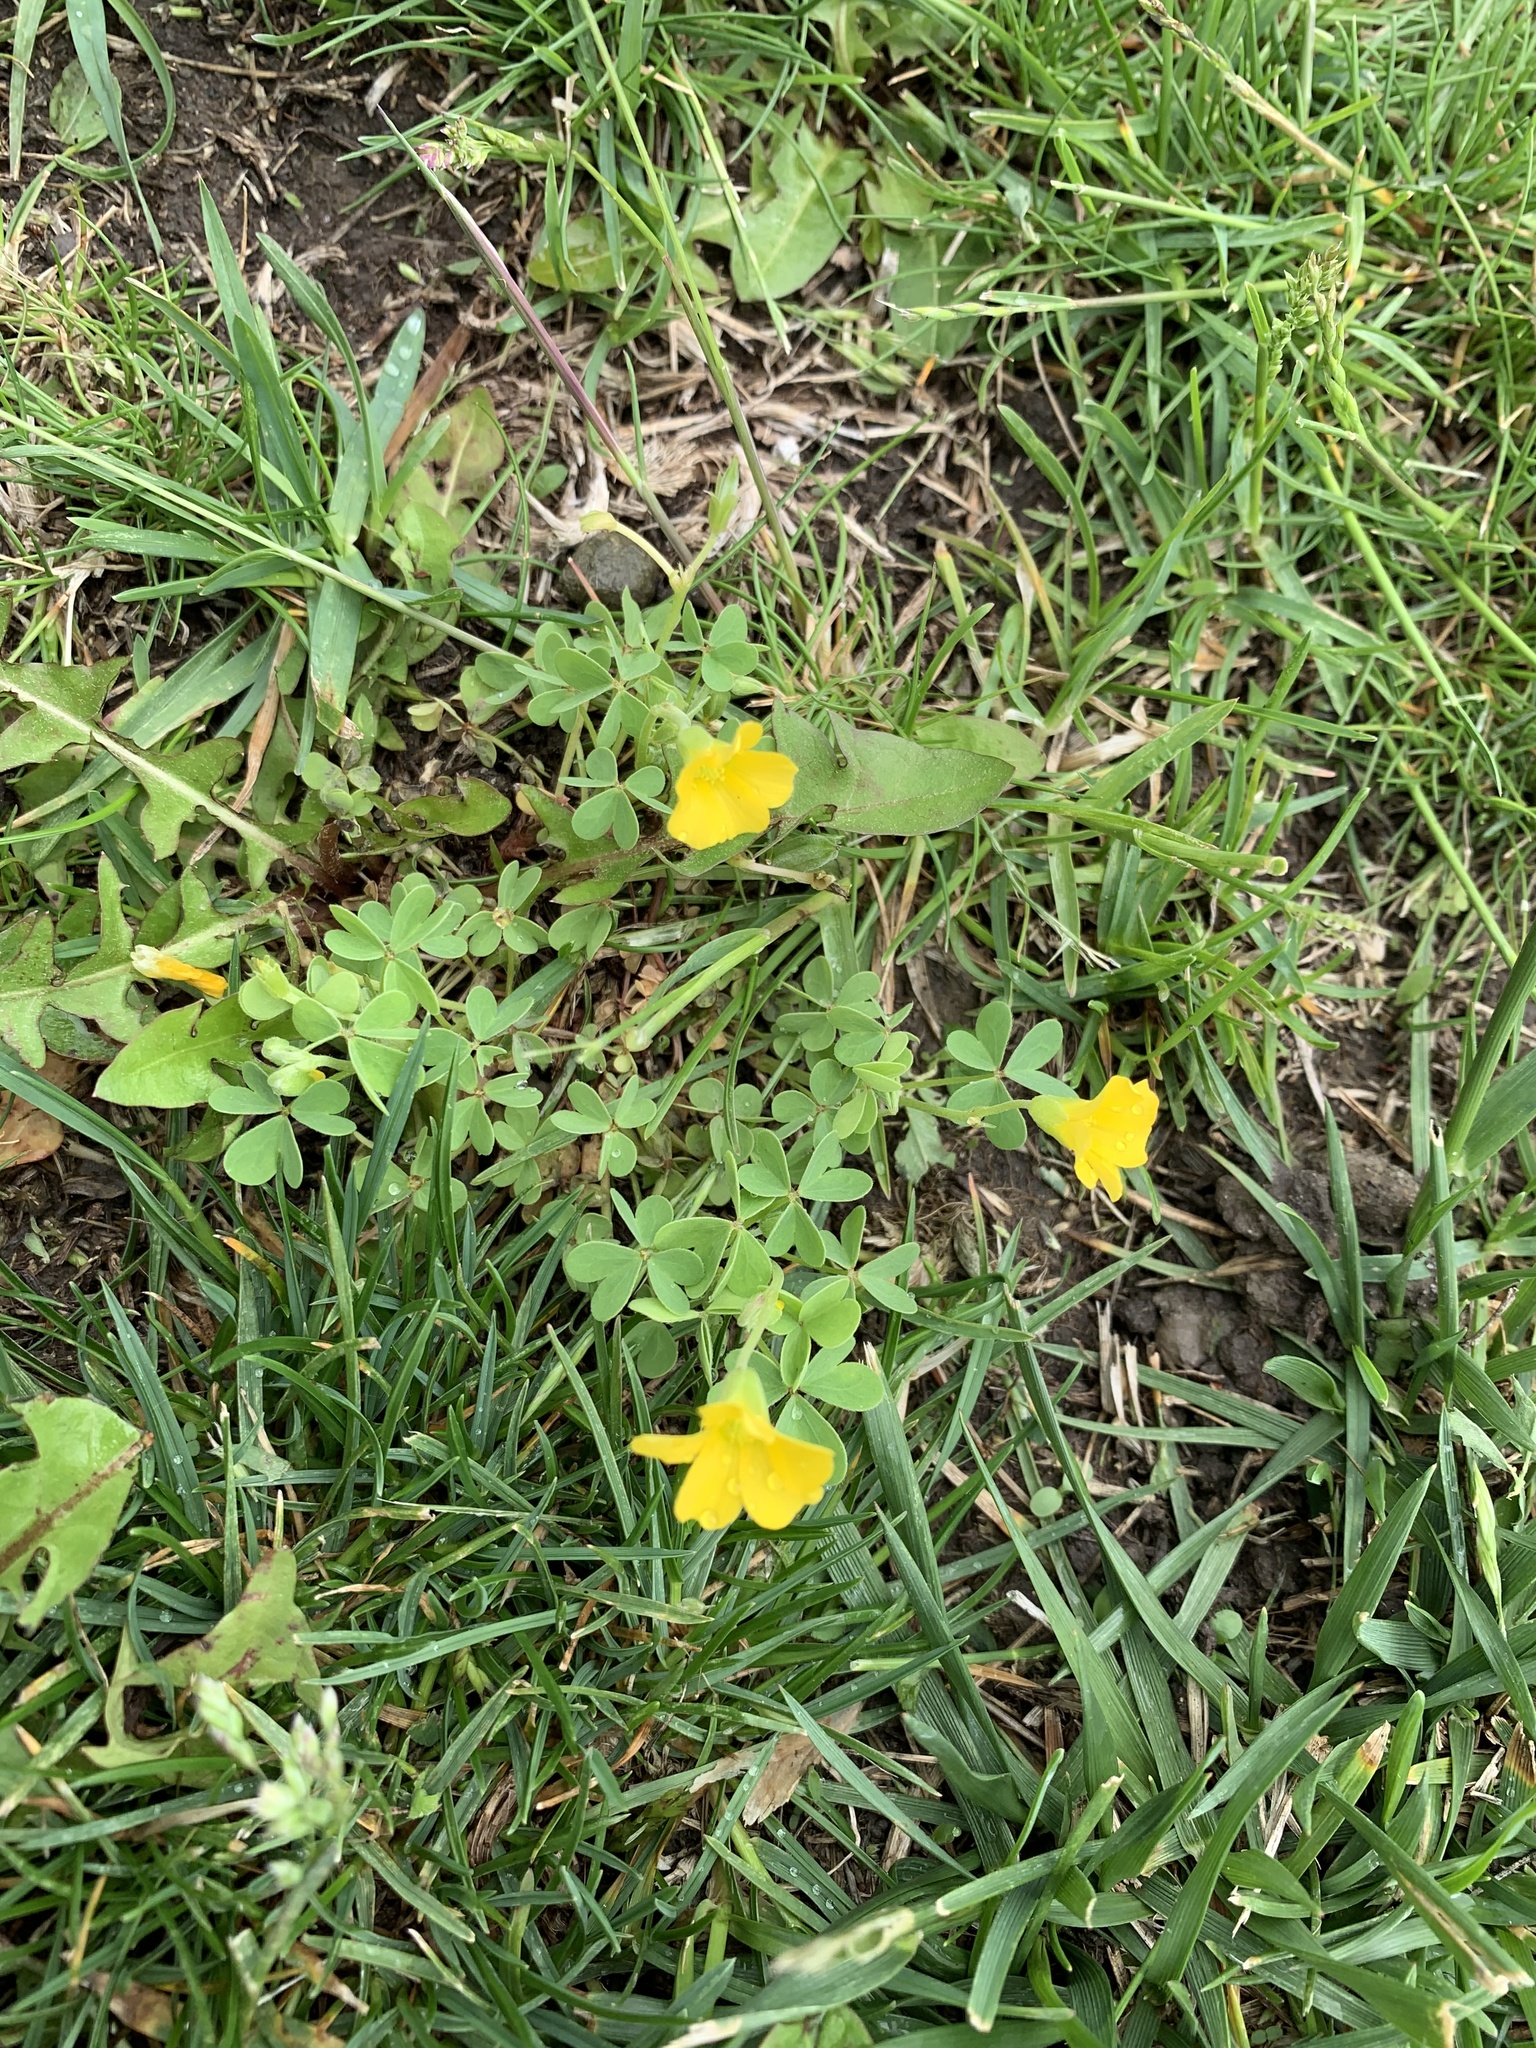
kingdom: Plantae
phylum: Tracheophyta
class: Magnoliopsida
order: Oxalidales
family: Oxalidaceae
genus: Oxalis
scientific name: Oxalis dillenii
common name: Sussex yellow-sorrel
